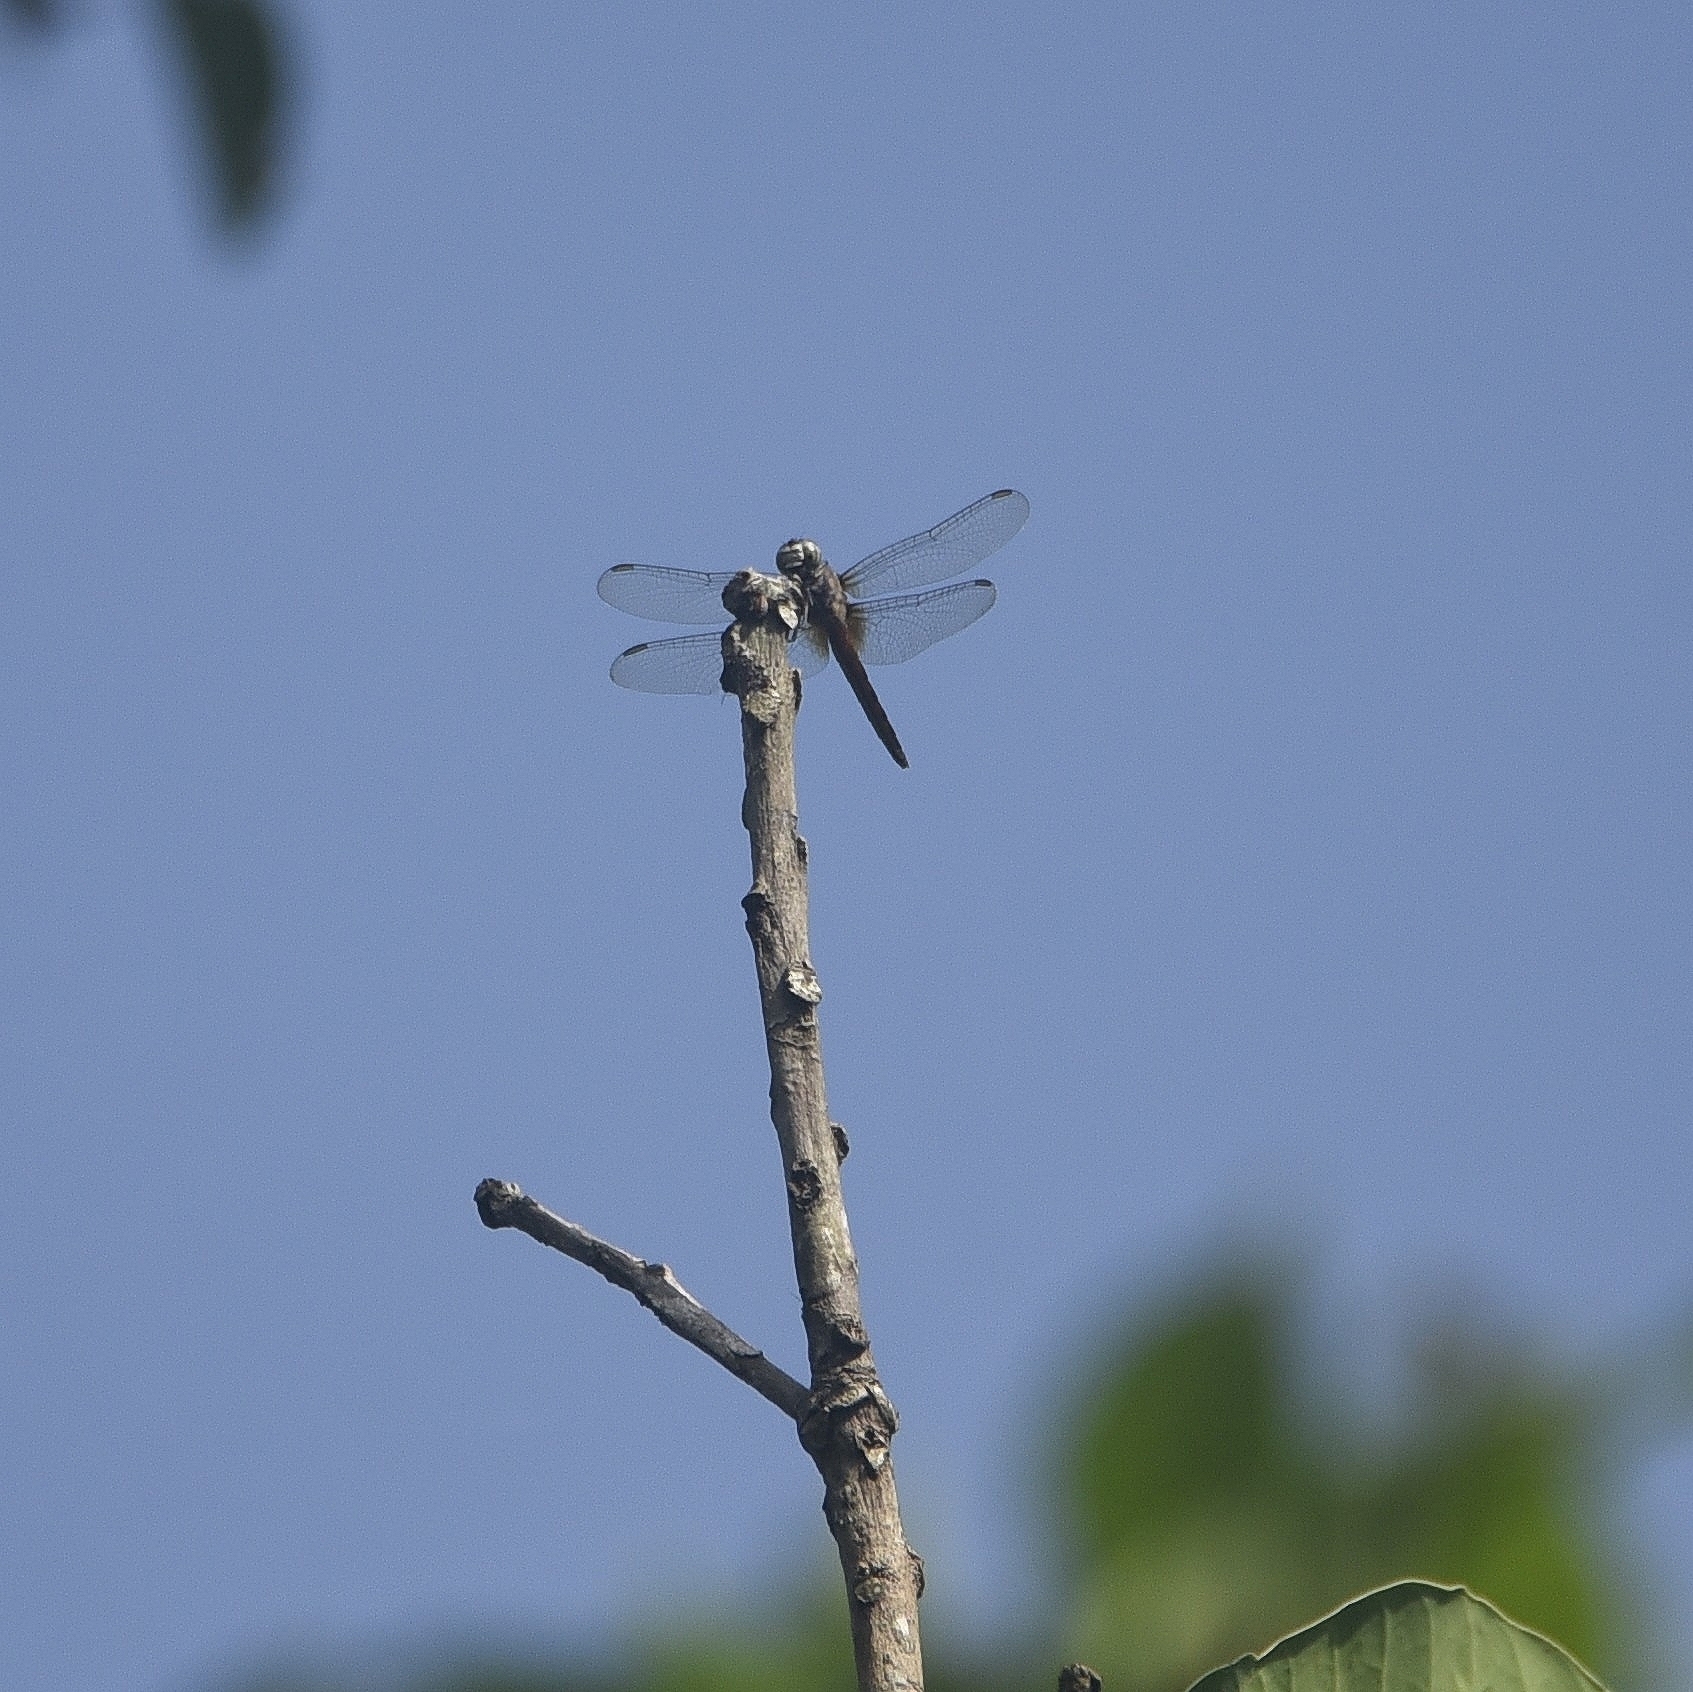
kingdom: Animalia
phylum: Arthropoda
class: Insecta
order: Odonata
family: Libellulidae
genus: Brachydiplax
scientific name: Brachydiplax chalybea
